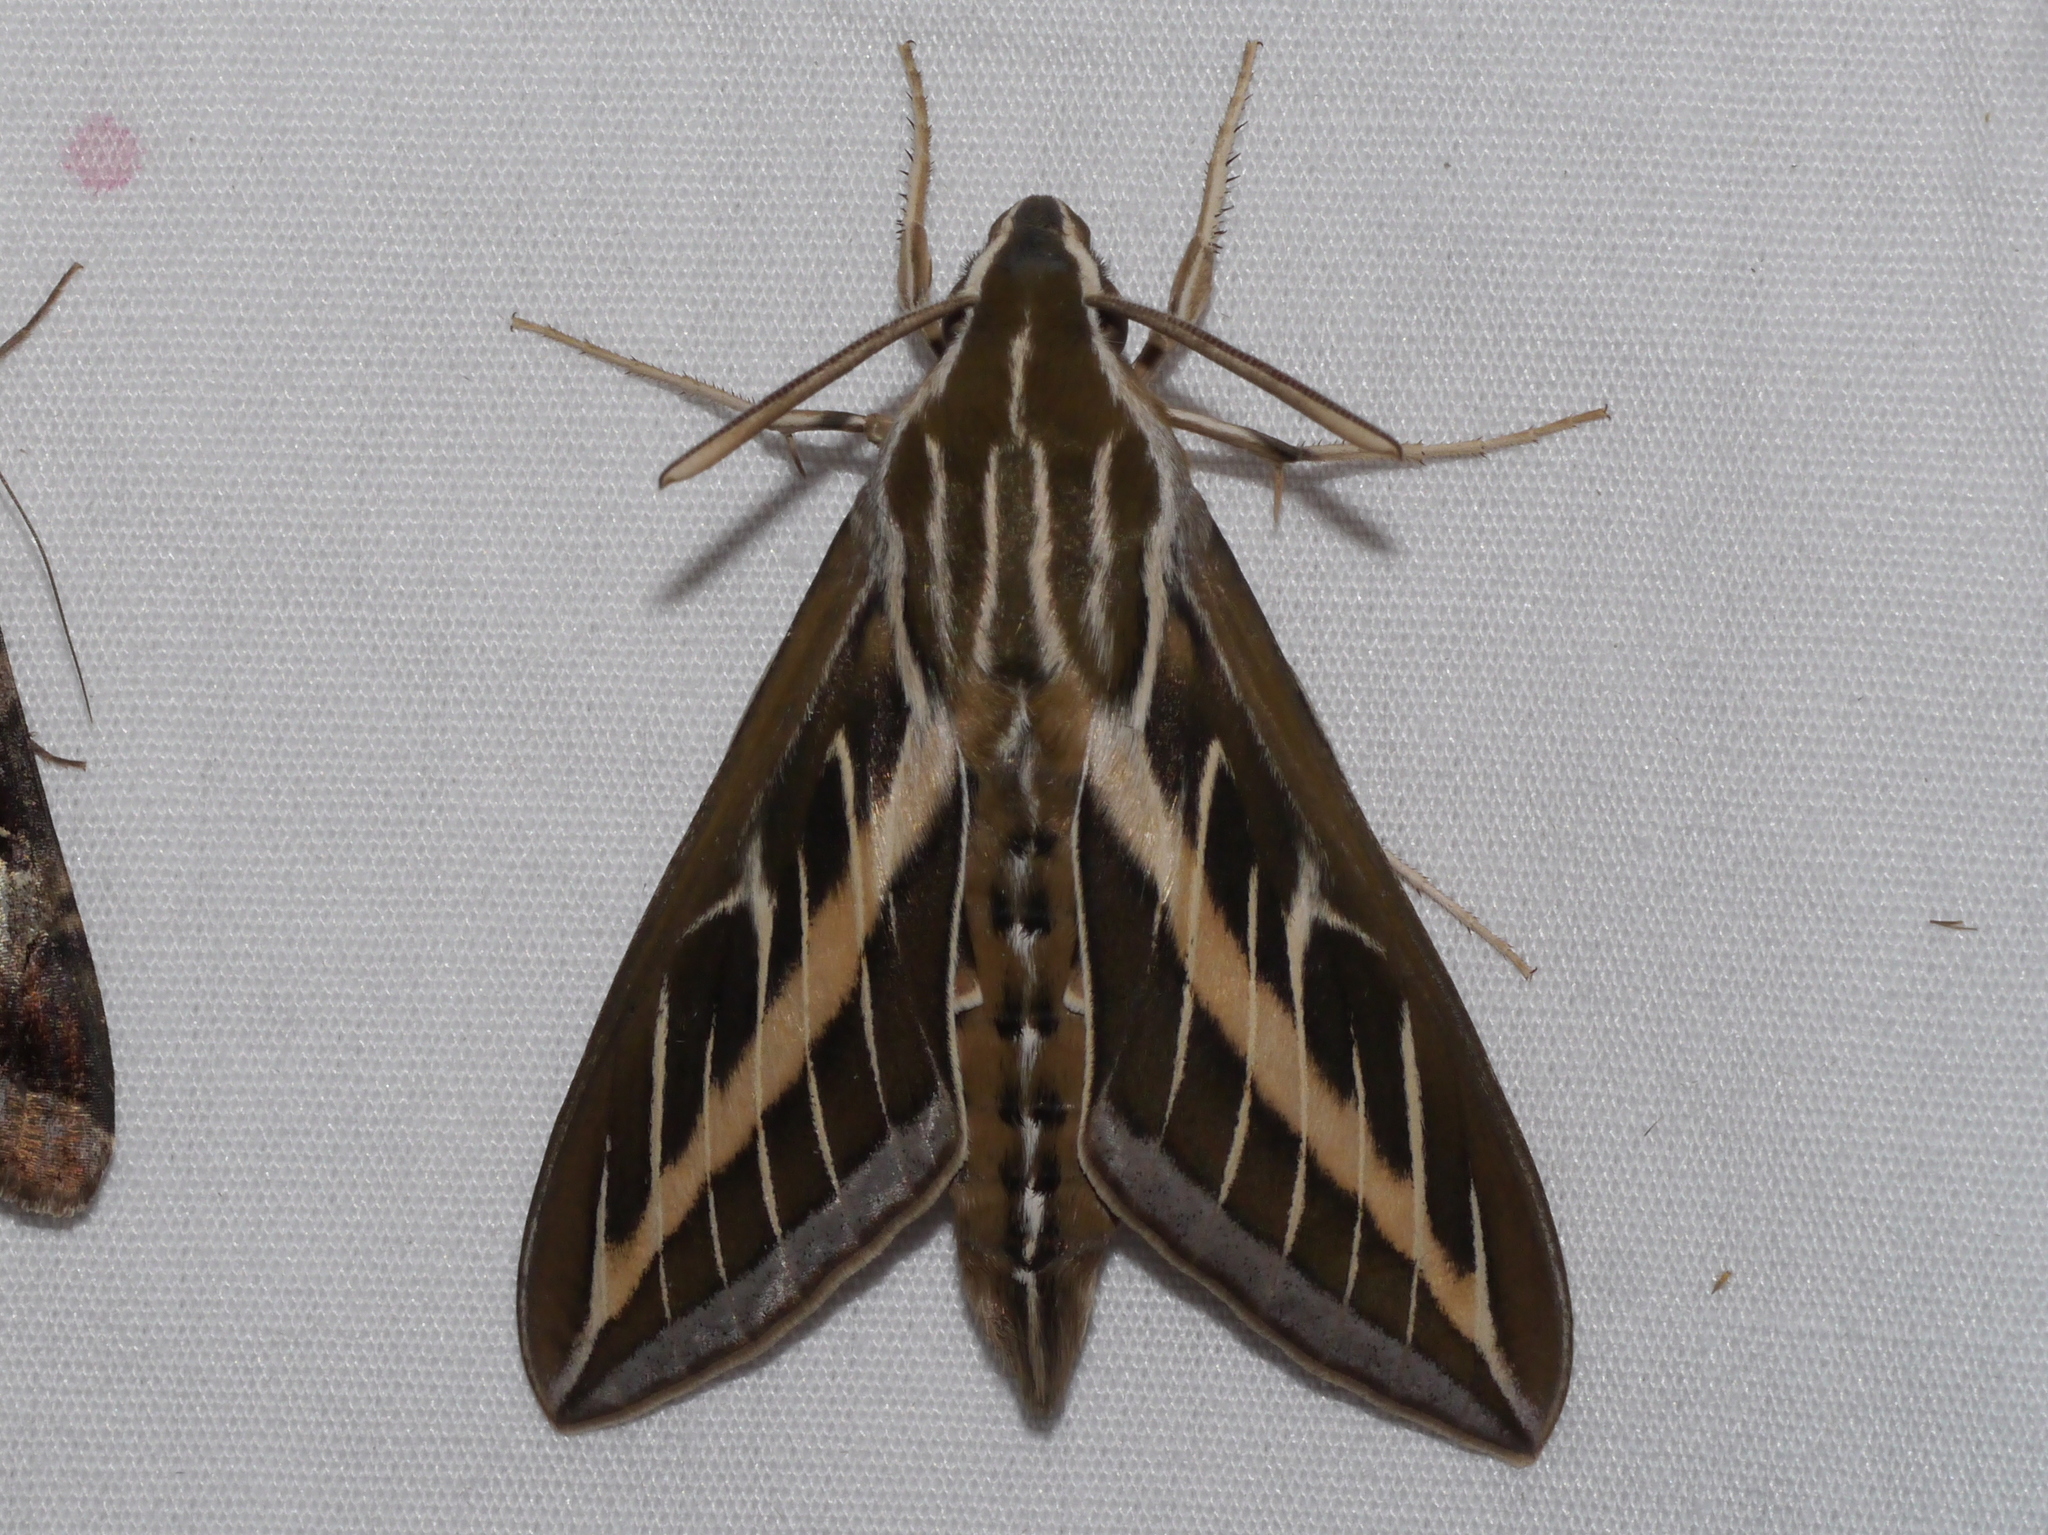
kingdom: Animalia
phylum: Arthropoda
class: Insecta
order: Lepidoptera
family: Sphingidae
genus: Hyles
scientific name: Hyles lineata
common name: White-lined sphinx
